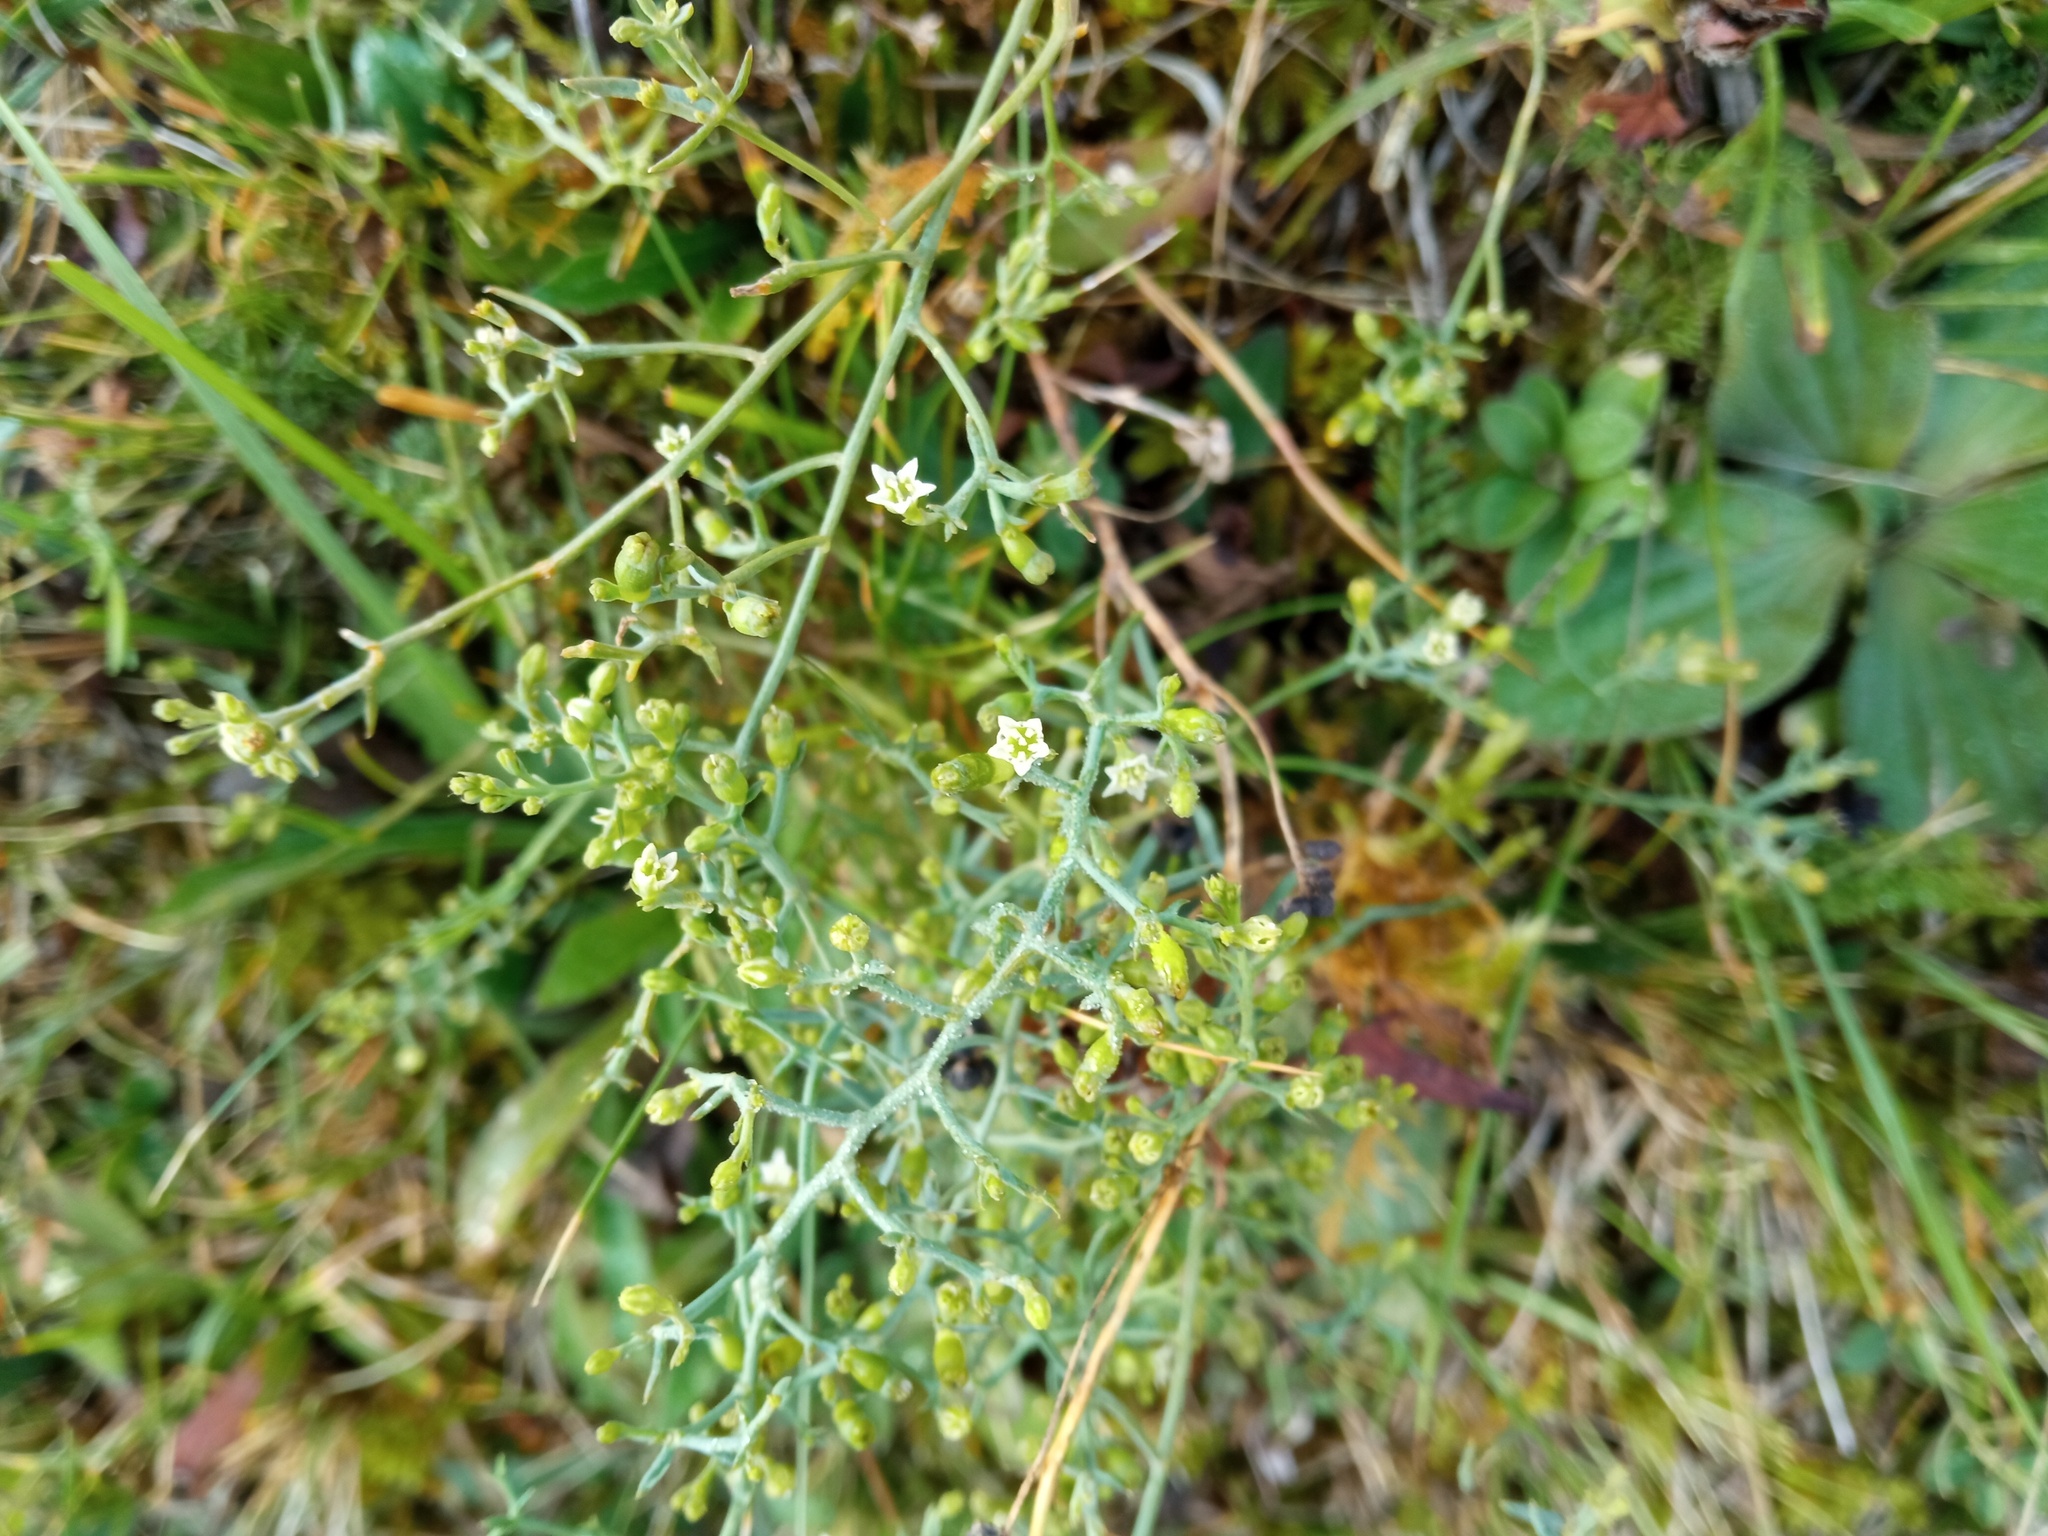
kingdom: Plantae
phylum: Tracheophyta
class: Magnoliopsida
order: Santalales
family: Thesiaceae
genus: Thesium
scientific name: Thesium humifusum
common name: Bastard-toadflax
